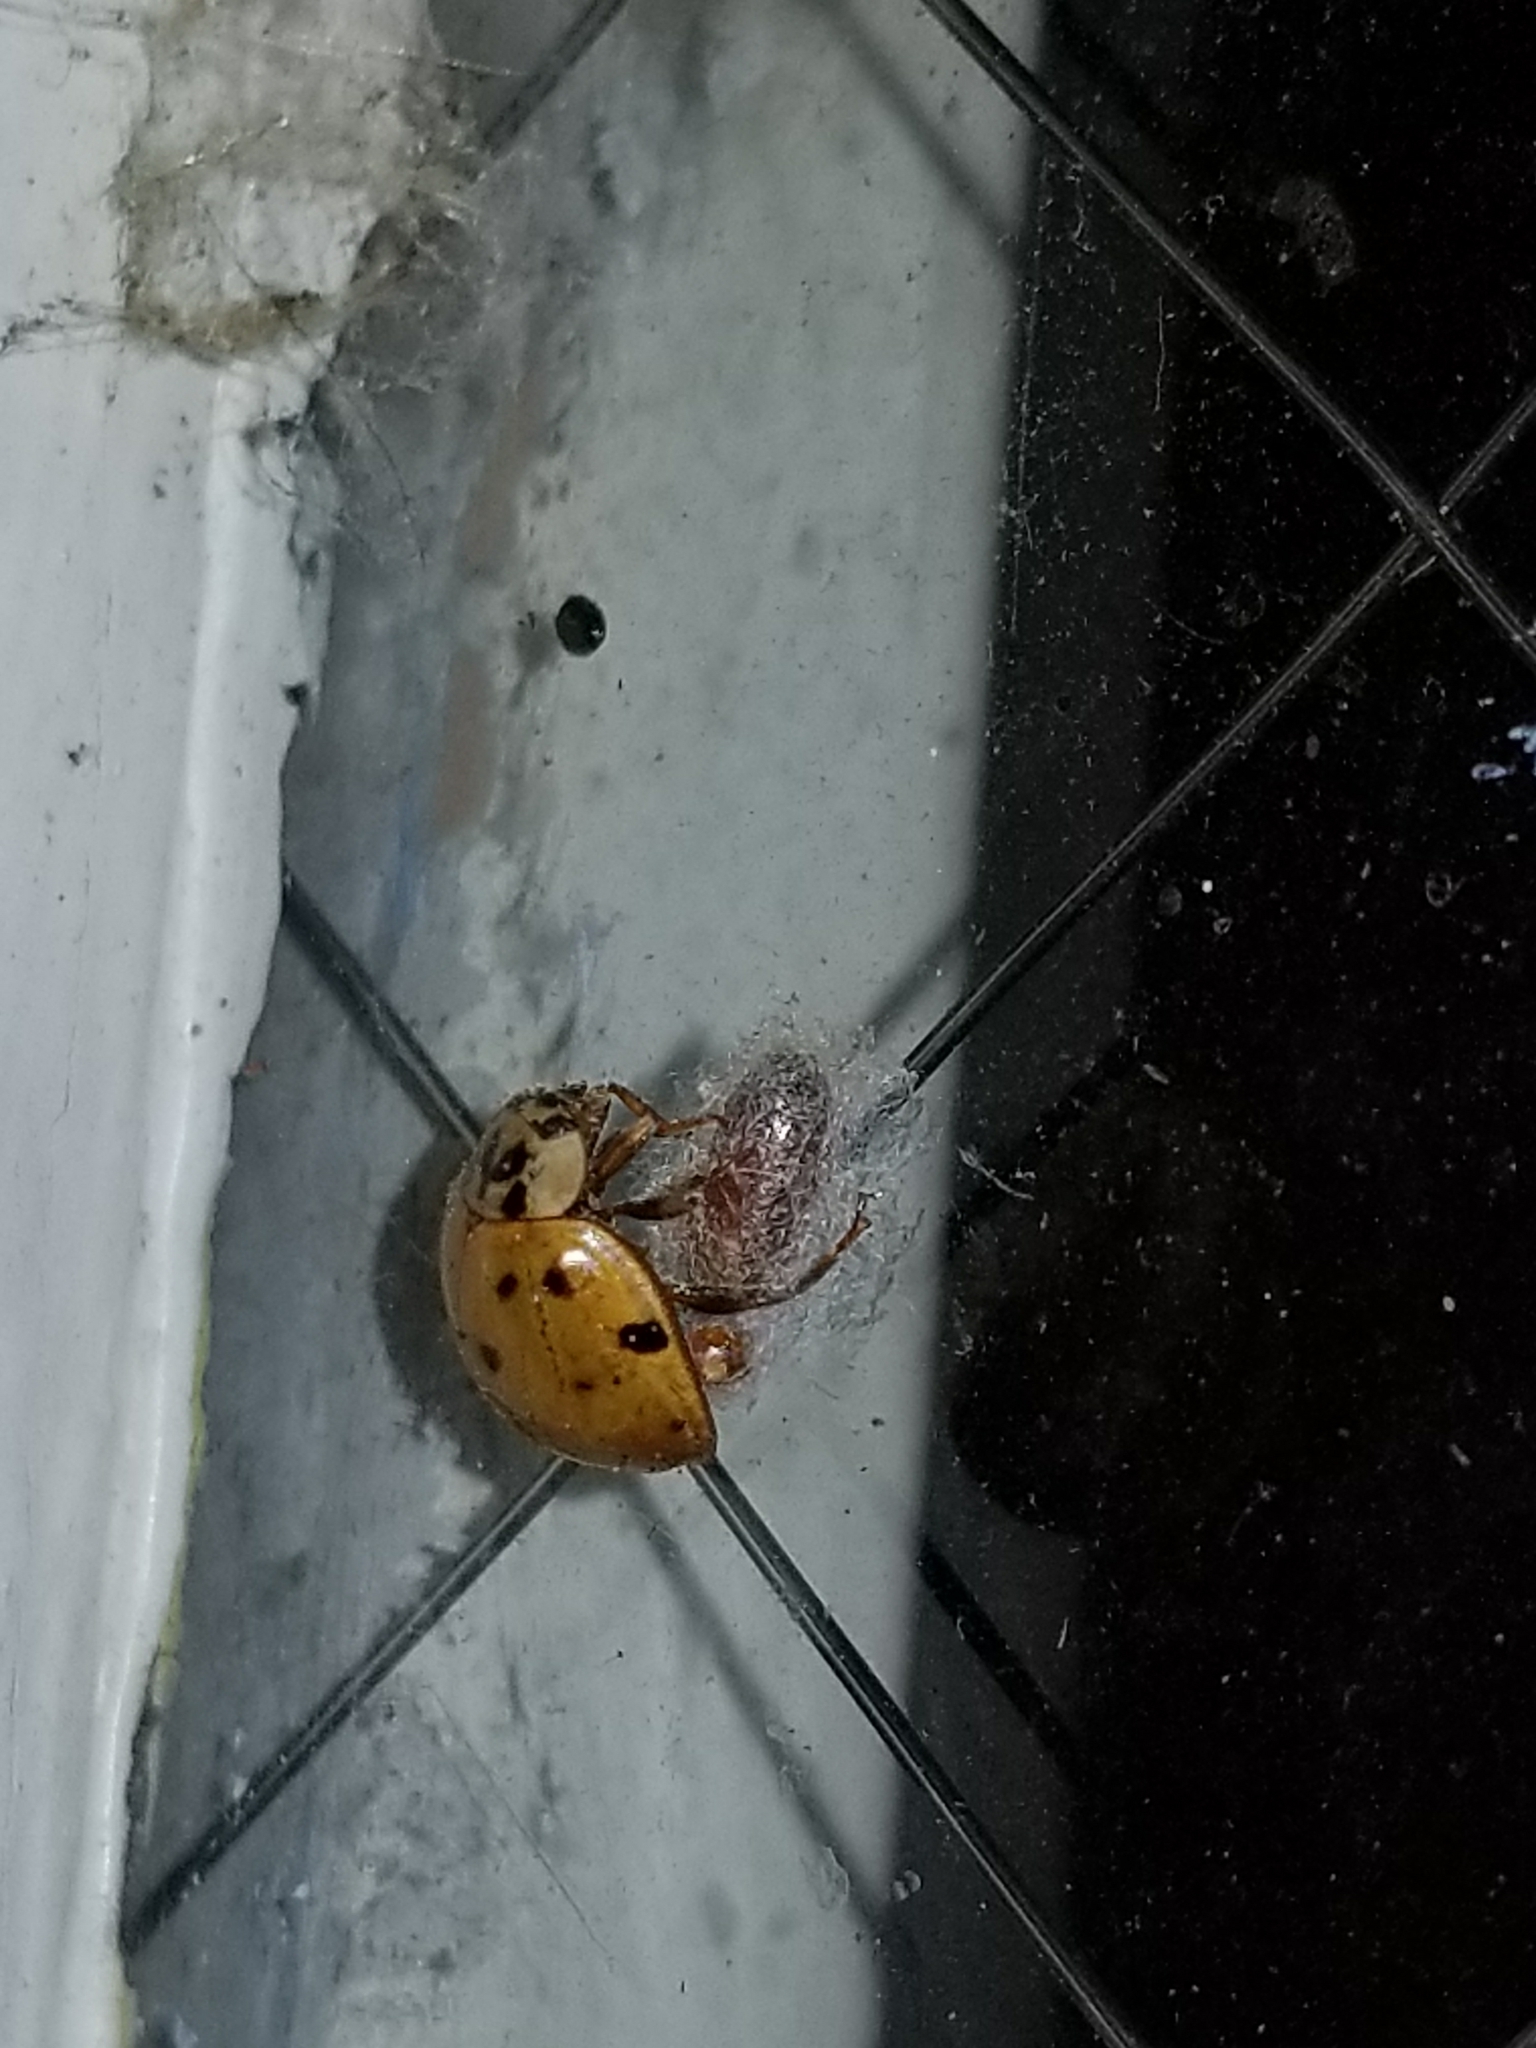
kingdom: Animalia
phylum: Arthropoda
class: Insecta
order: Hymenoptera
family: Braconidae
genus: Dinocampus
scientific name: Dinocampus coccinellae
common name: Braconid wasp
